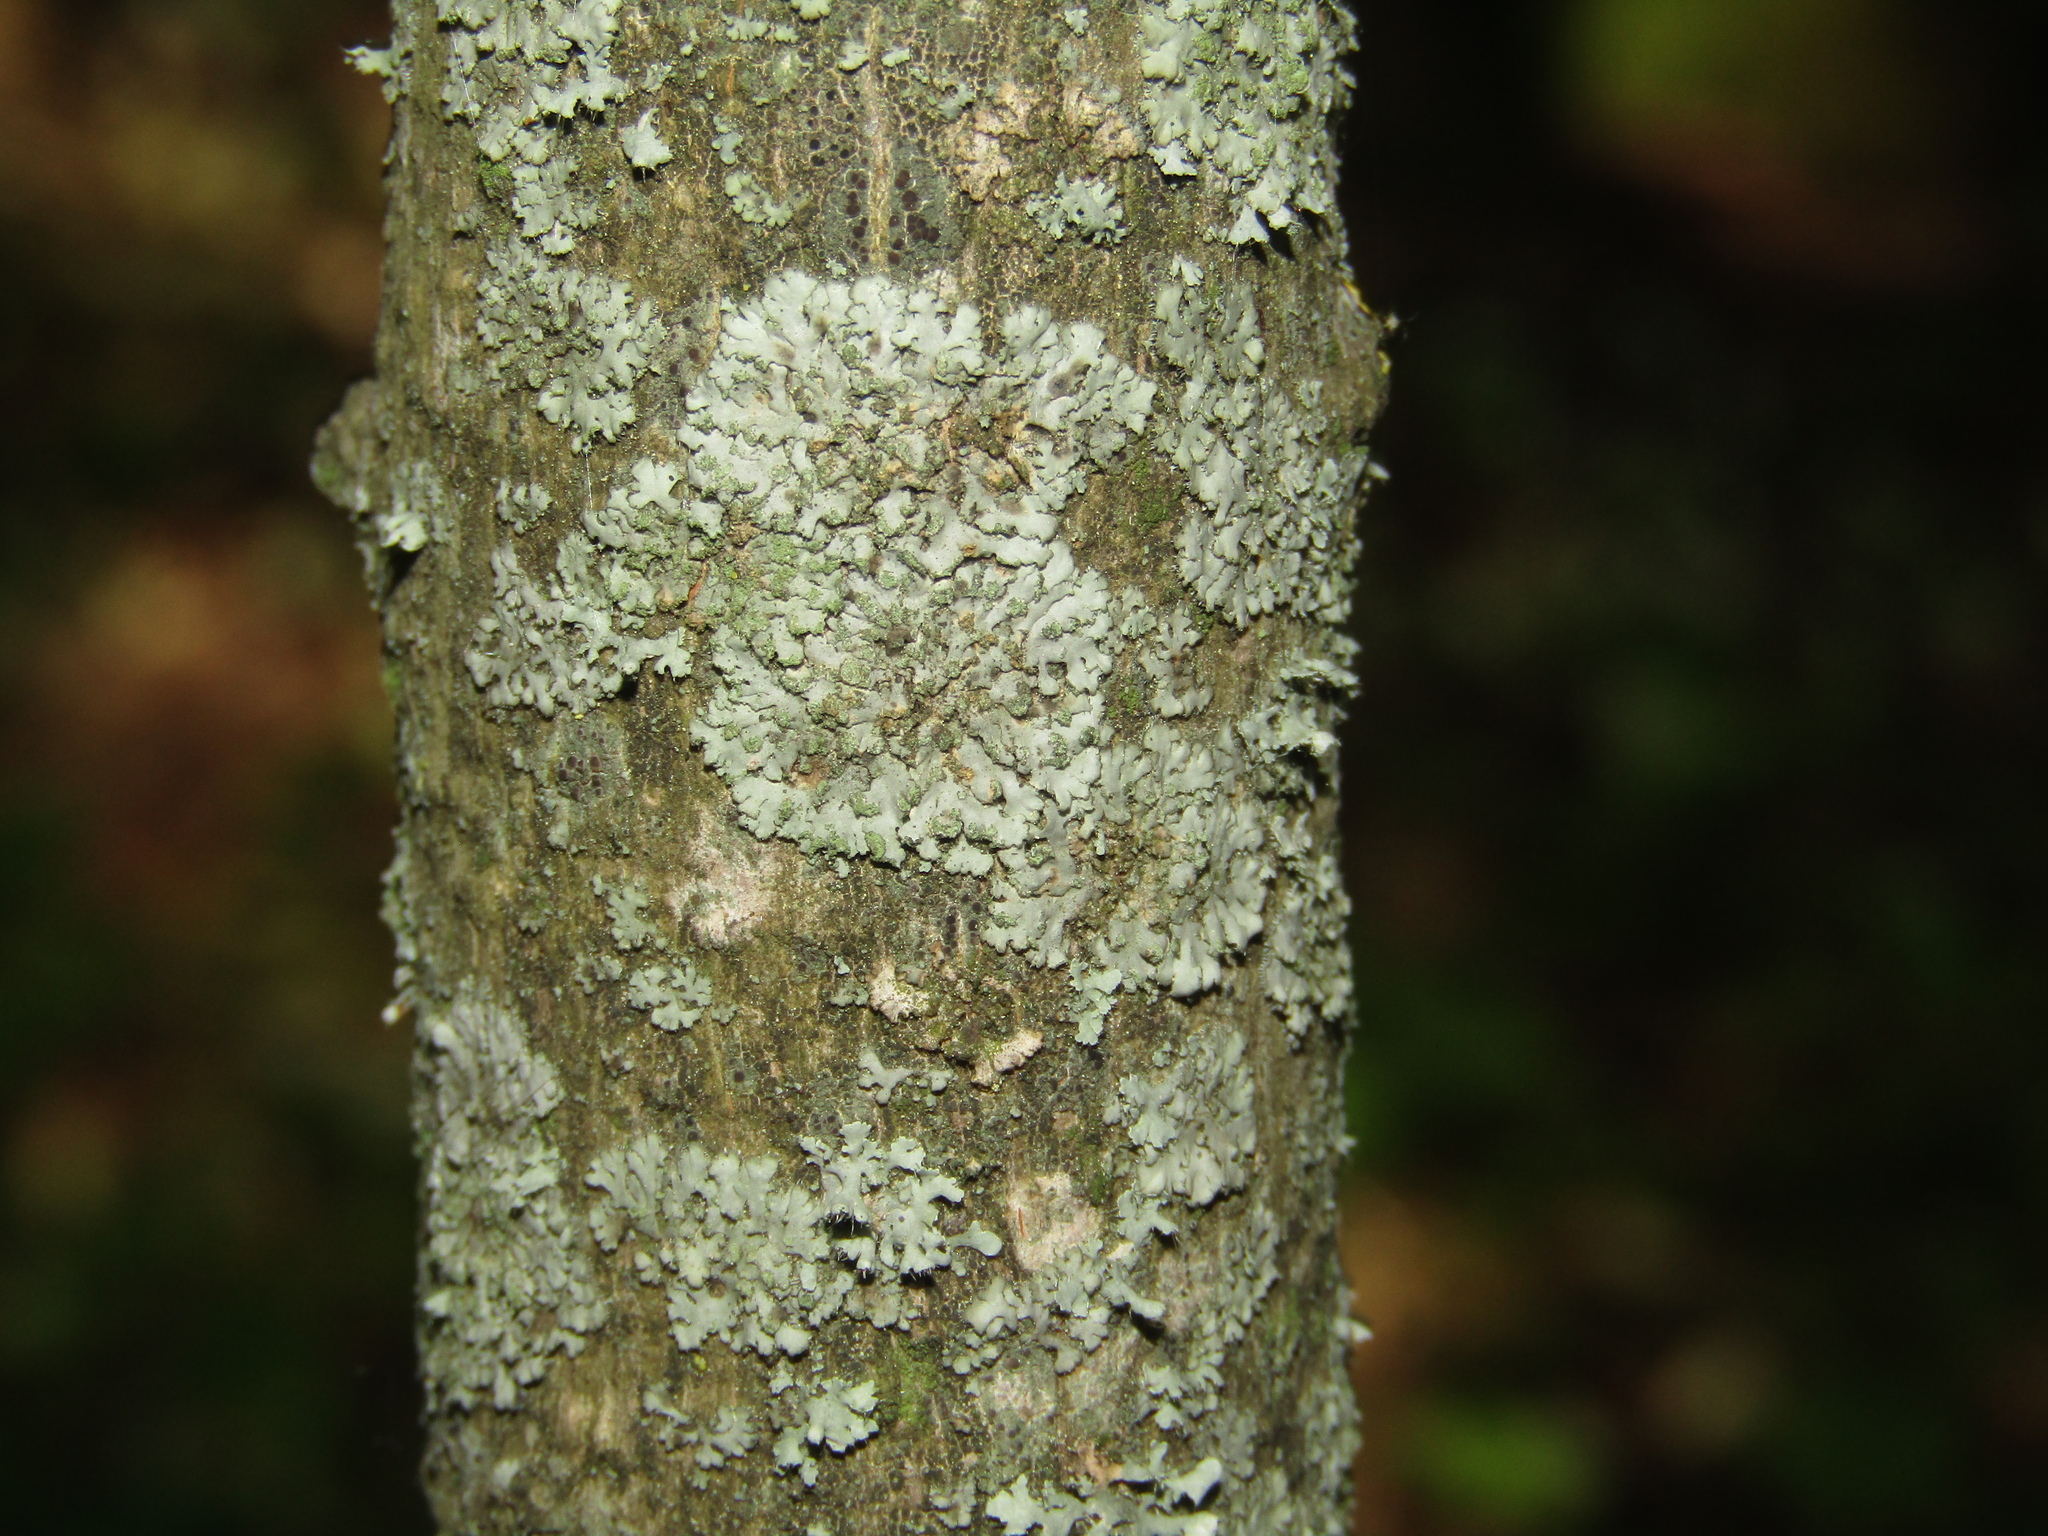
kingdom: Fungi
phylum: Ascomycota
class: Lecanoromycetes
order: Caliciales
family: Physciaceae
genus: Phaeophyscia
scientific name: Phaeophyscia orbicularis
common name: Mealy shadow lichen
